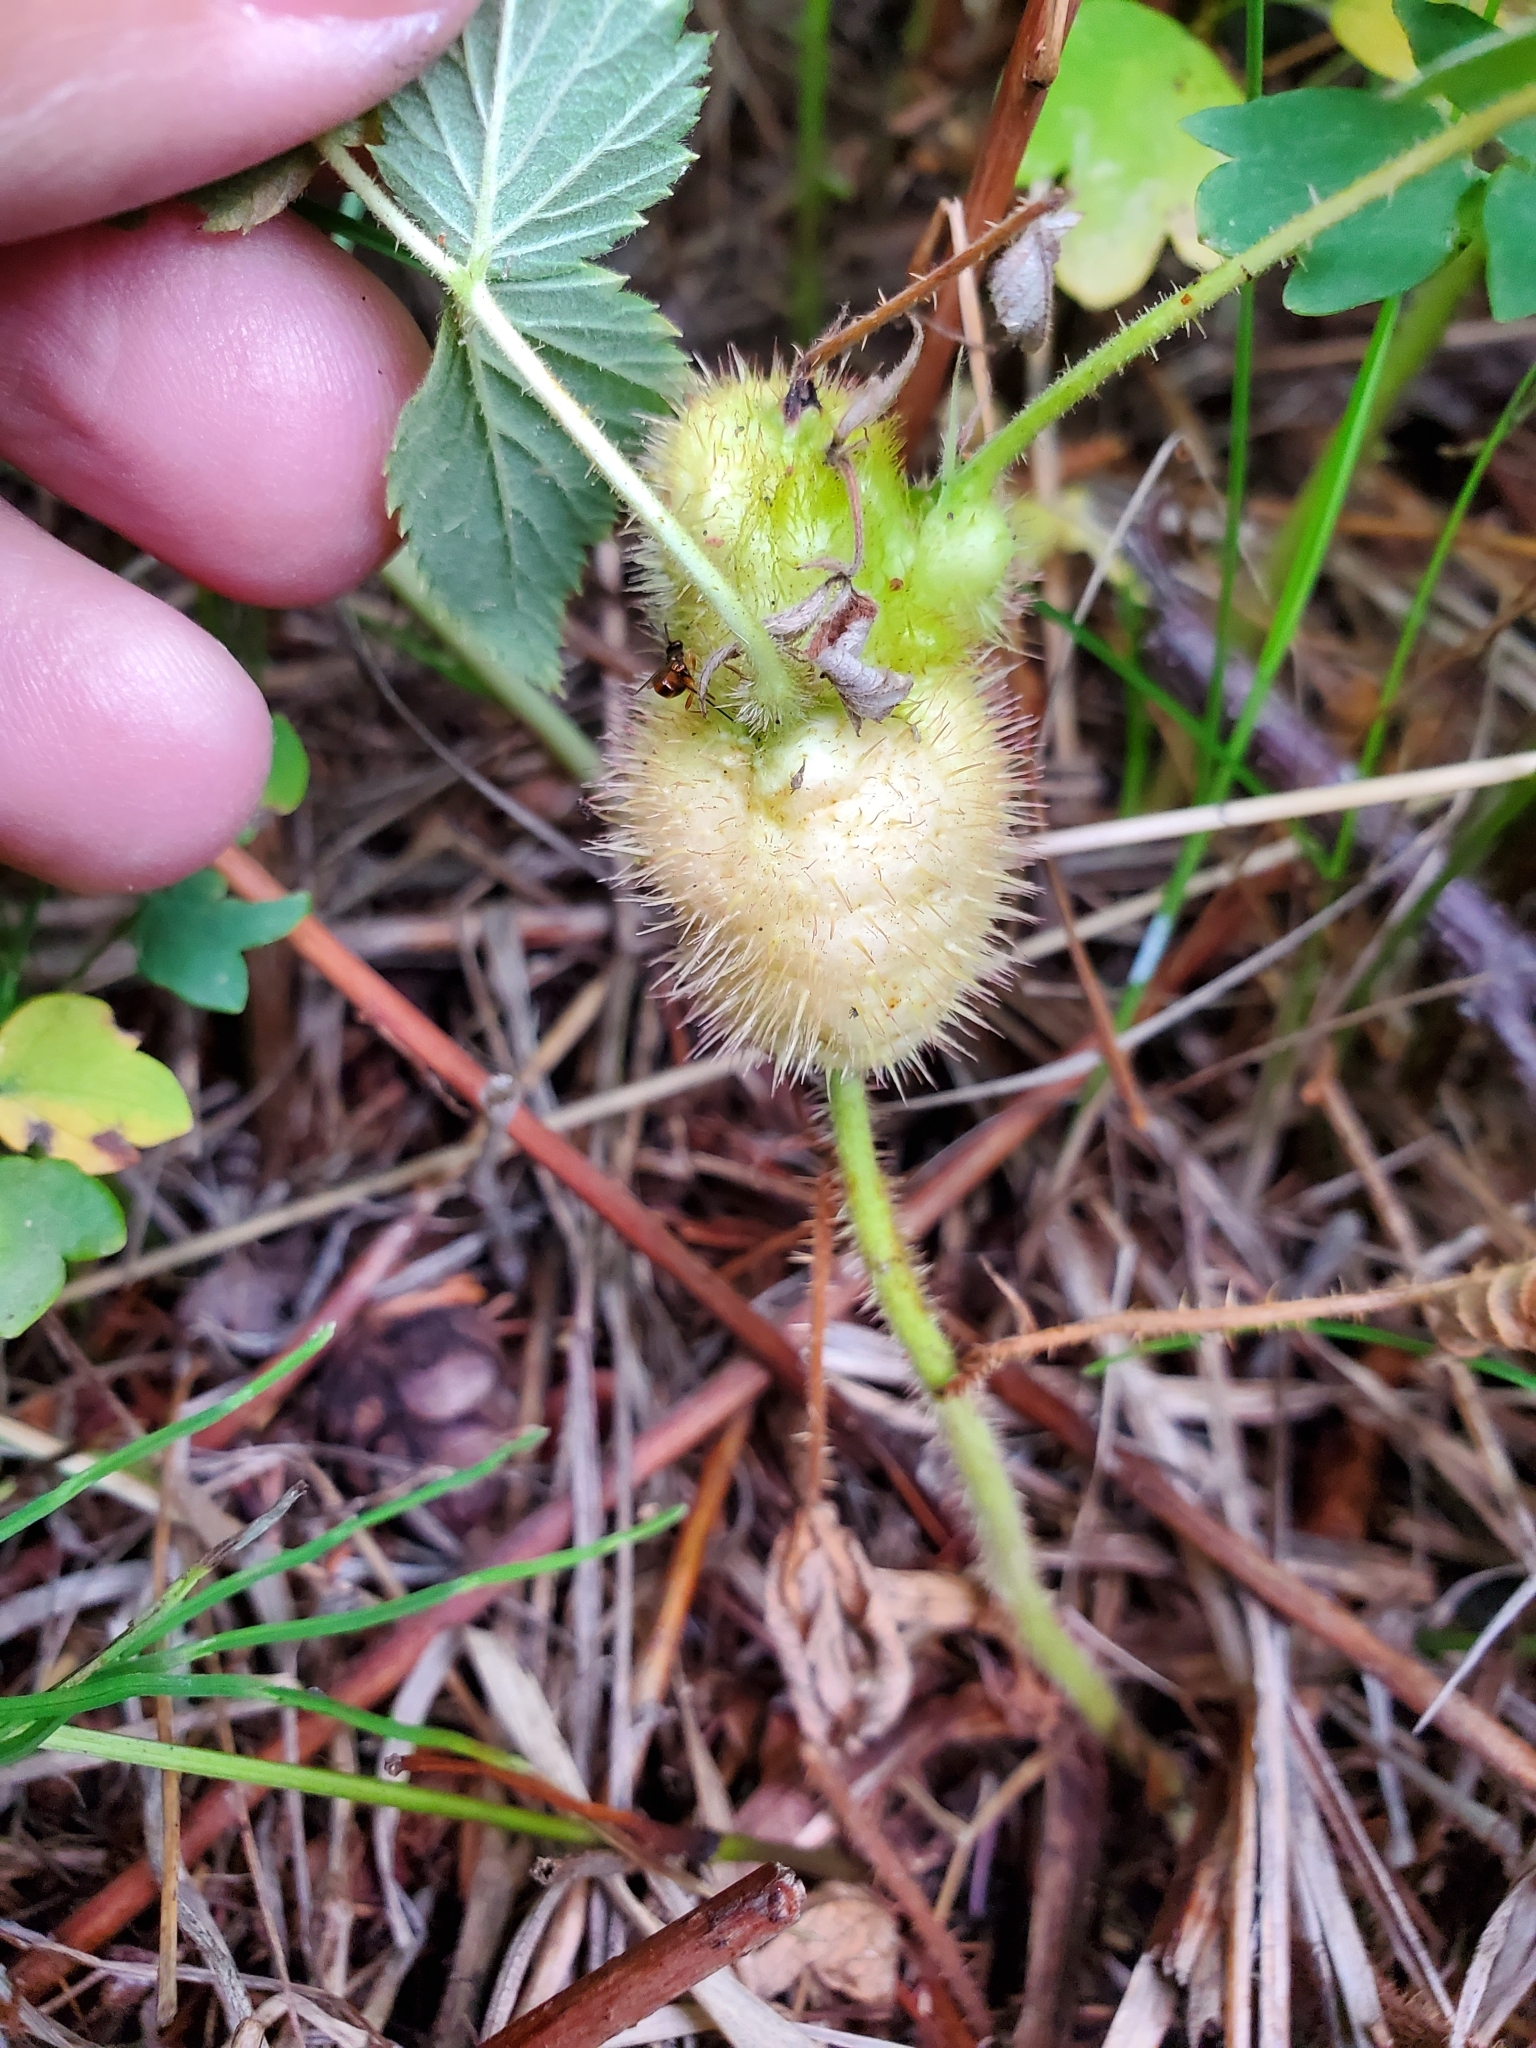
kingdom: Animalia
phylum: Arthropoda
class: Insecta
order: Hymenoptera
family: Cynipidae
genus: Diastrophus
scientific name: Diastrophus turgidus
